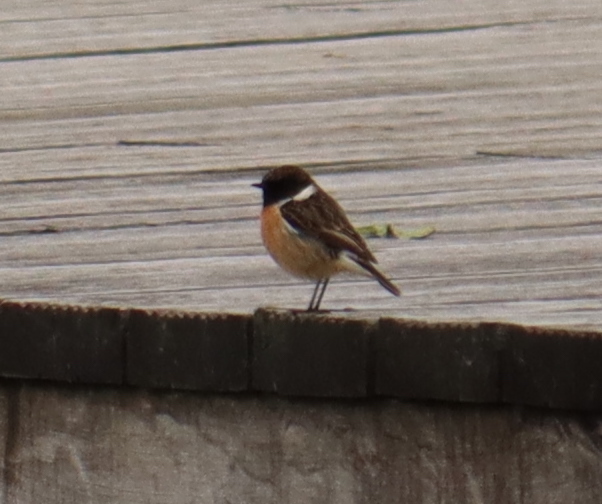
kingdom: Animalia
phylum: Chordata
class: Aves
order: Passeriformes
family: Muscicapidae
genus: Saxicola
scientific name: Saxicola rubicola
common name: European stonechat
